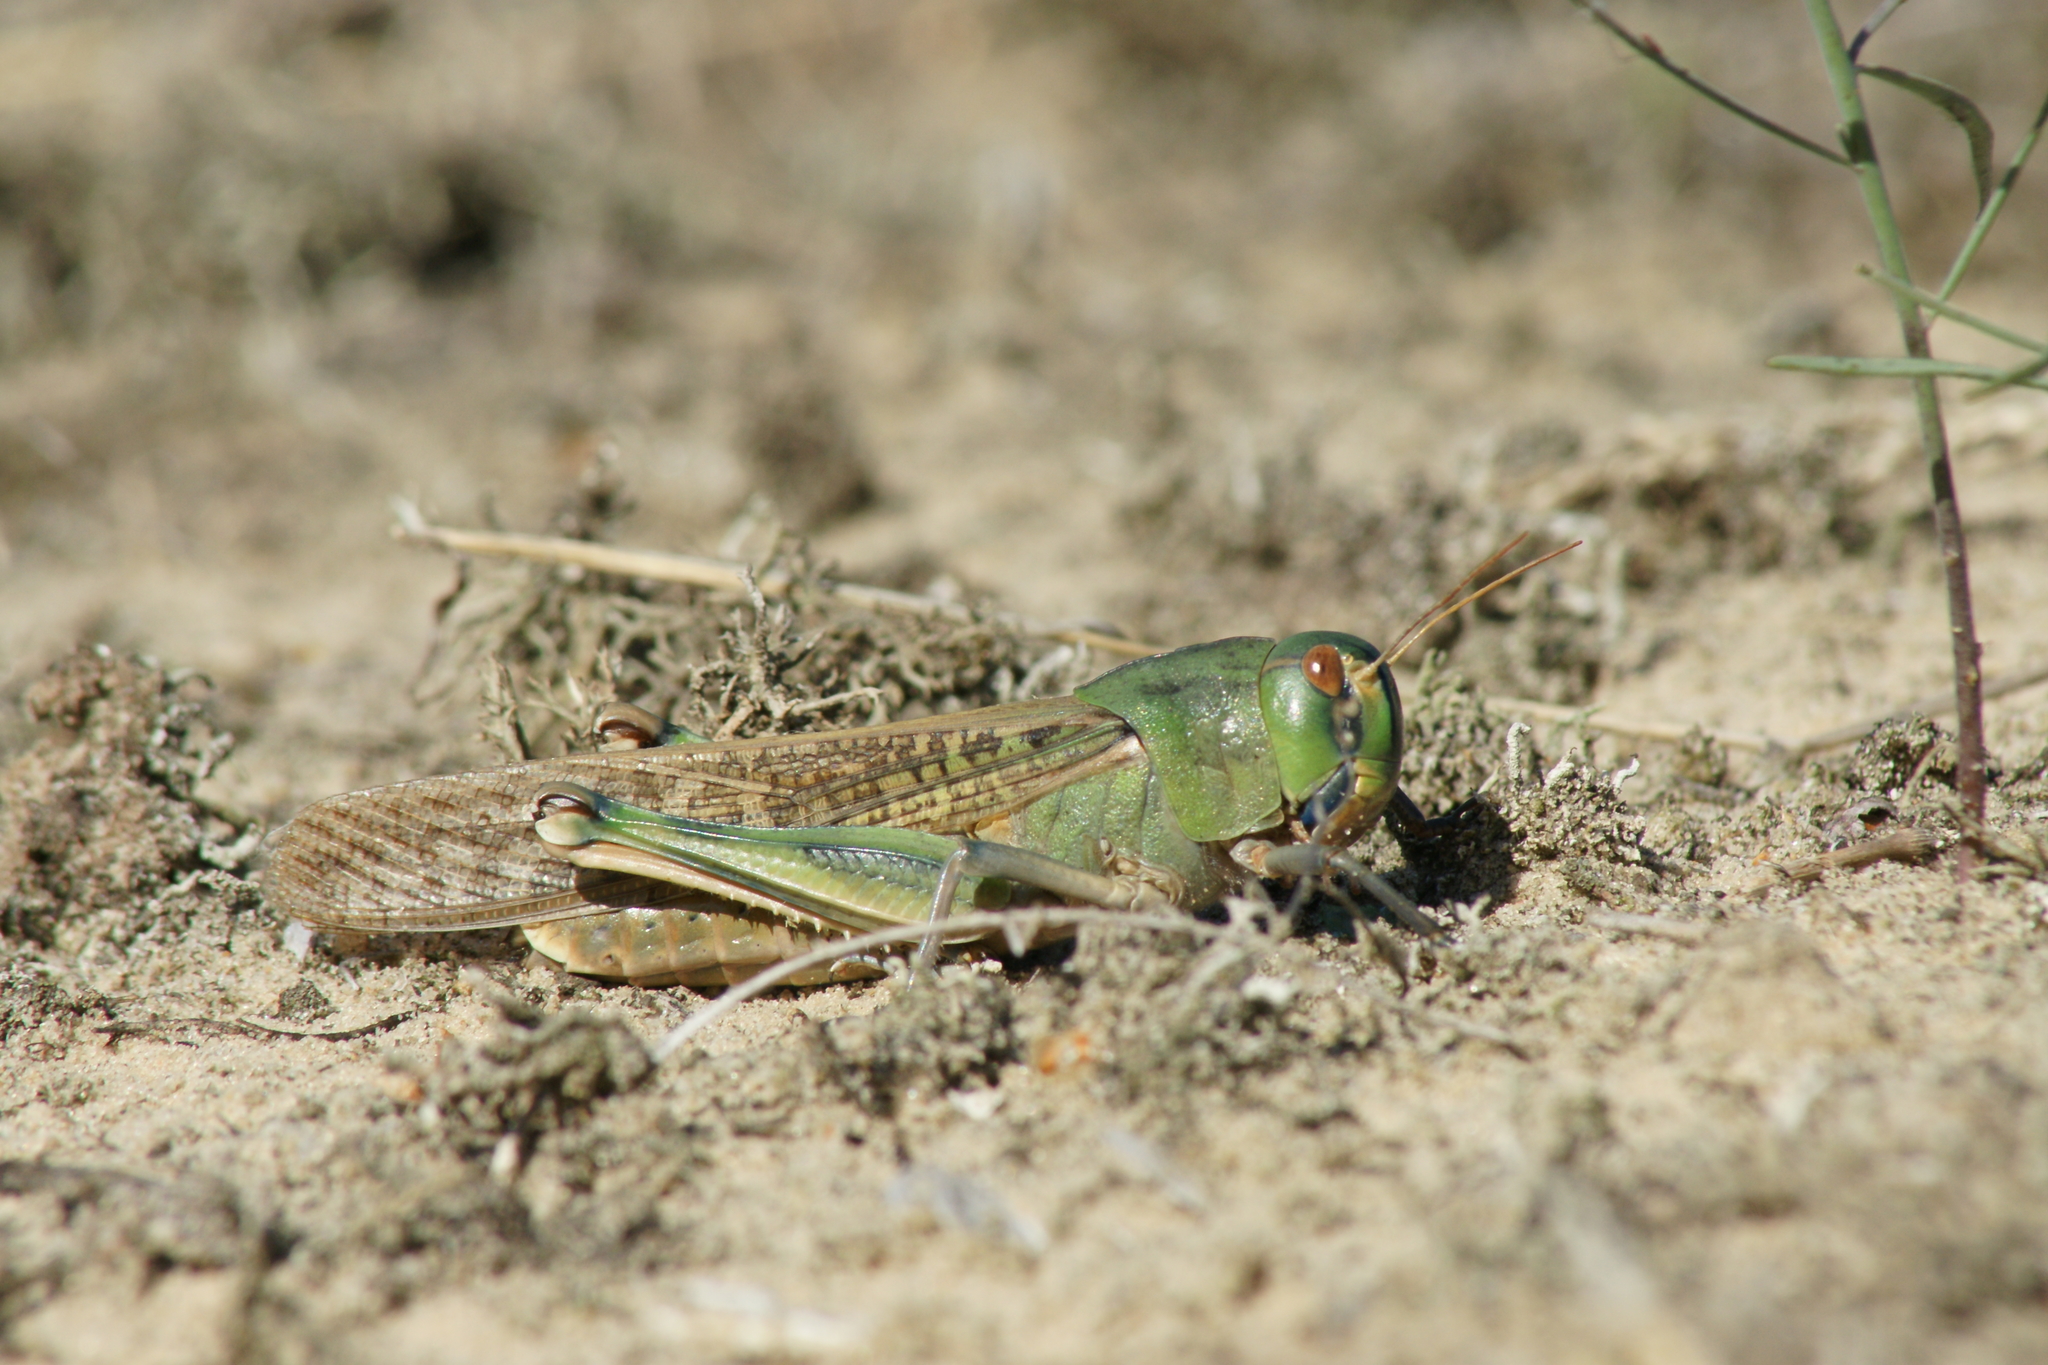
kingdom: Animalia
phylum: Arthropoda
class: Insecta
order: Orthoptera
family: Acrididae
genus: Locusta
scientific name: Locusta migratoria
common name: Migratory locust
